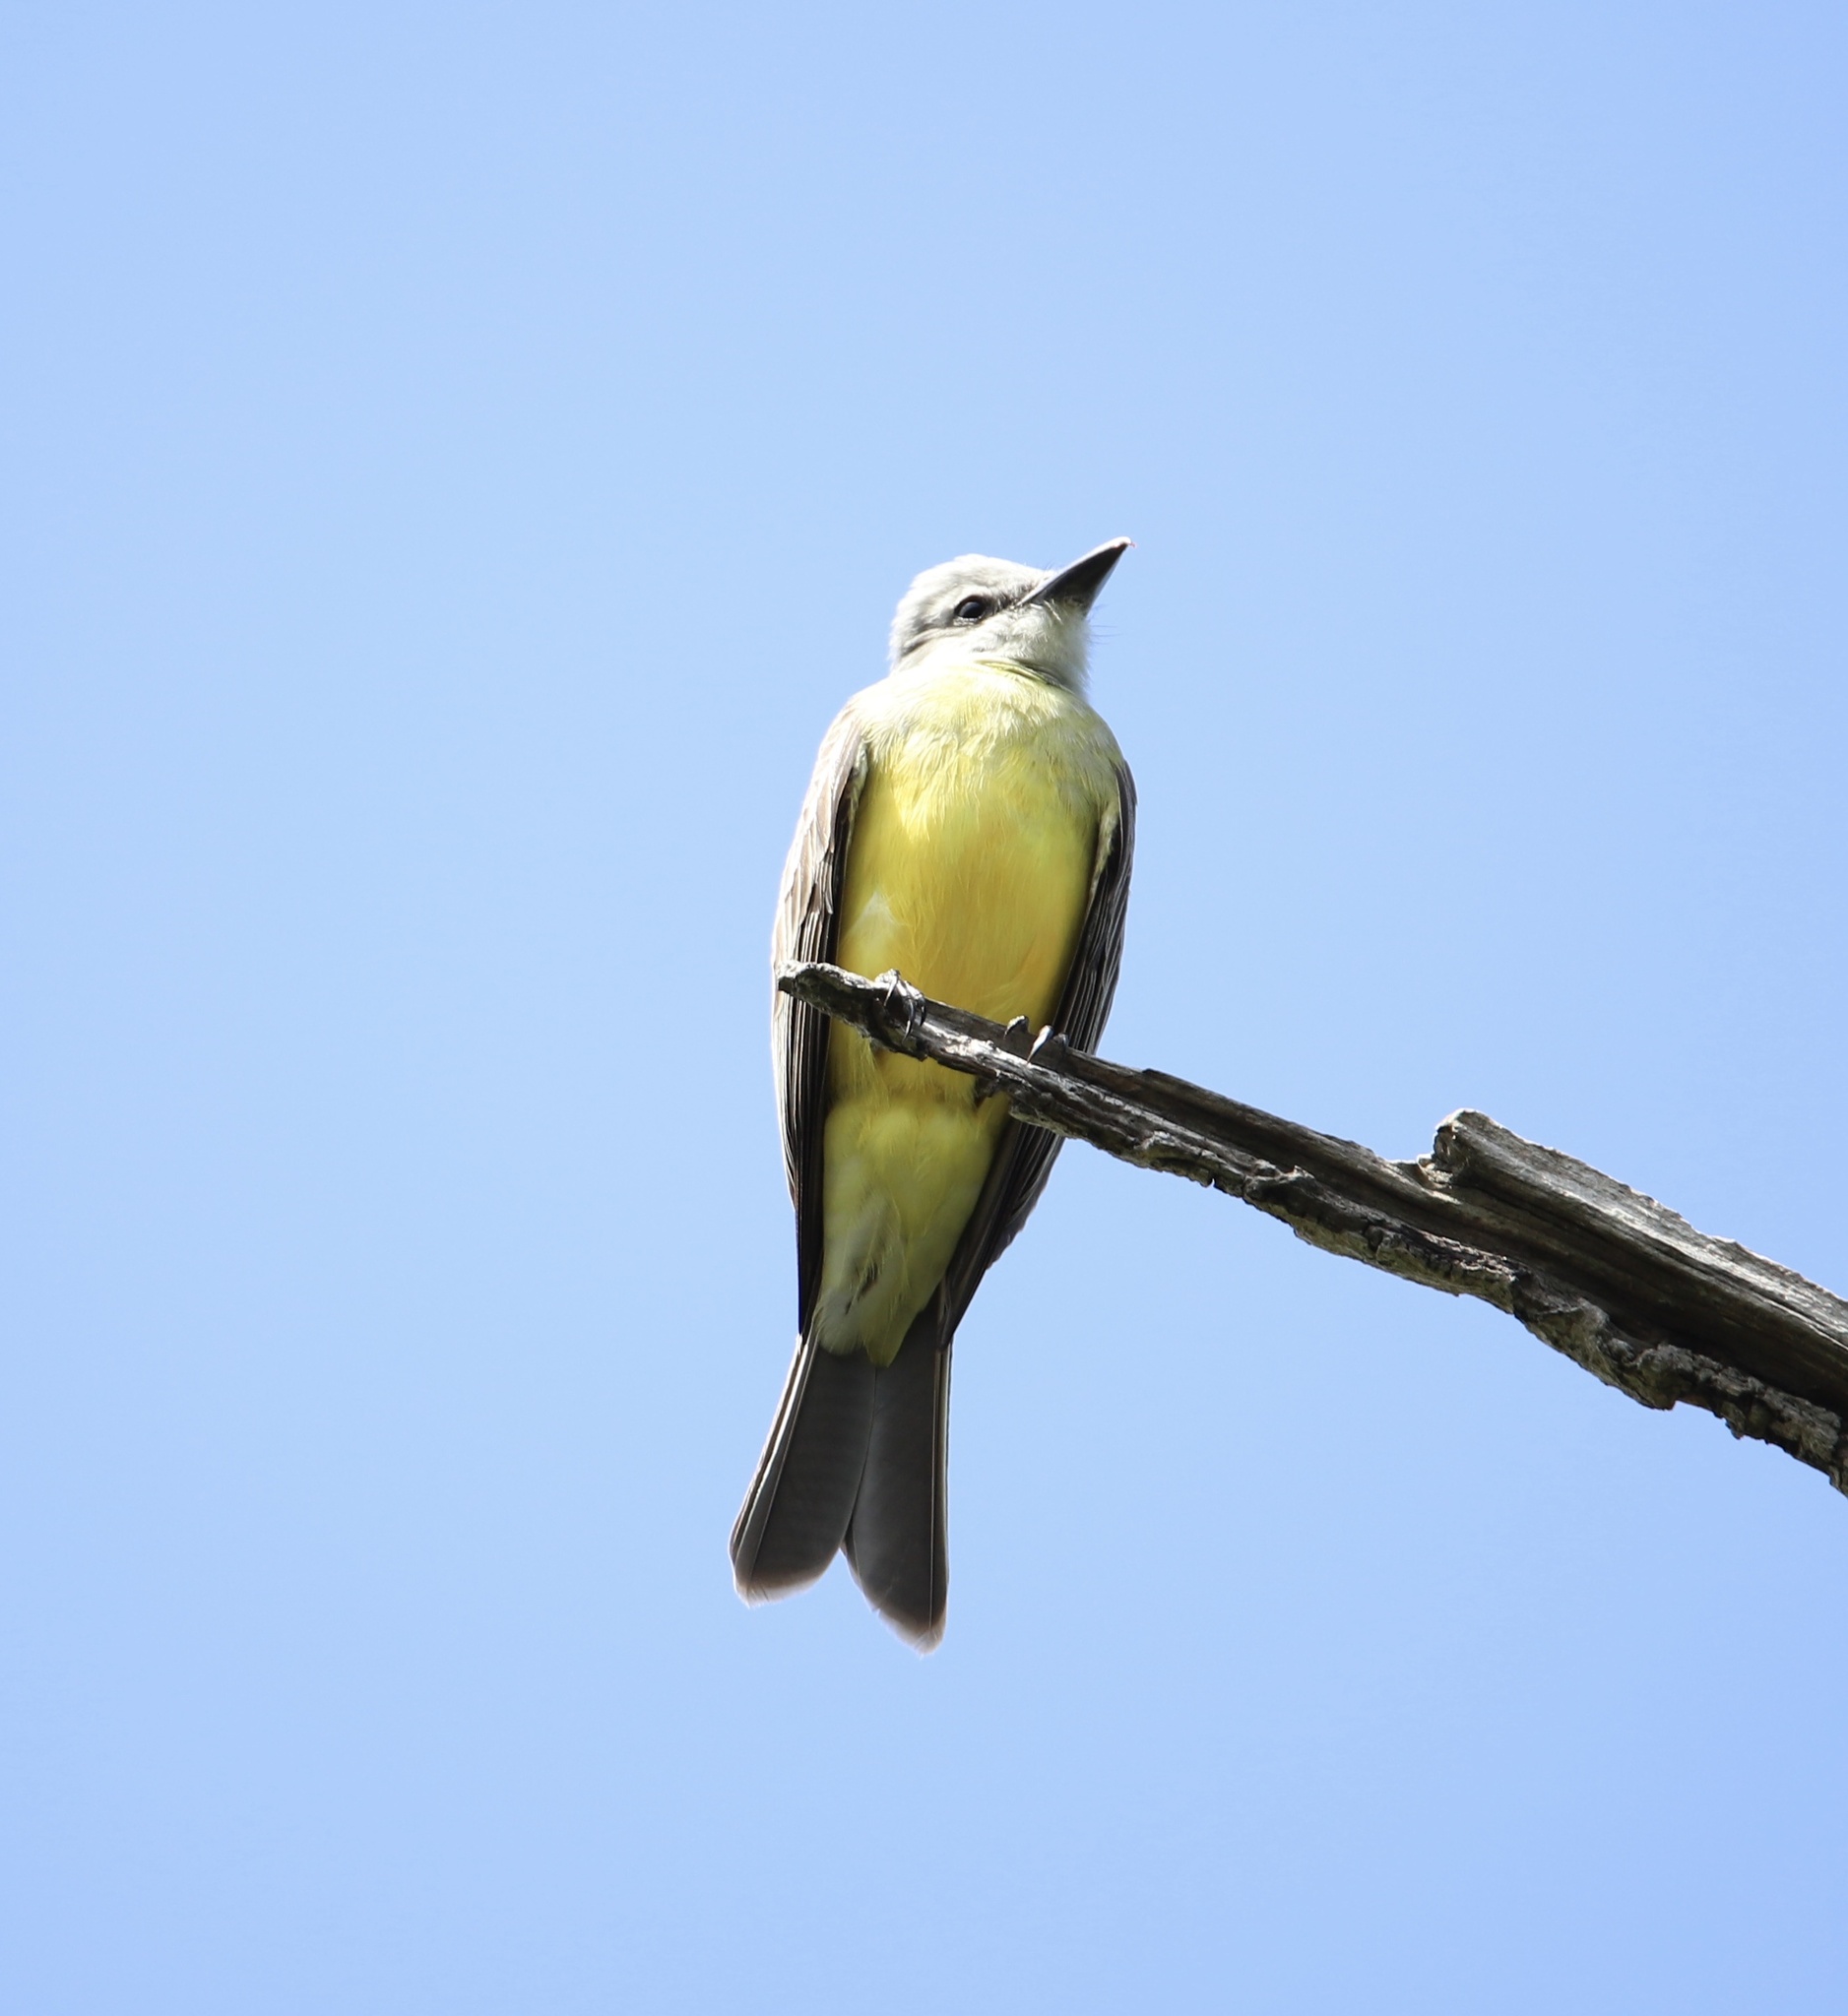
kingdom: Animalia
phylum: Chordata
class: Aves
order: Passeriformes
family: Tyrannidae
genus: Tyrannus
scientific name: Tyrannus melancholicus
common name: Tropical kingbird
